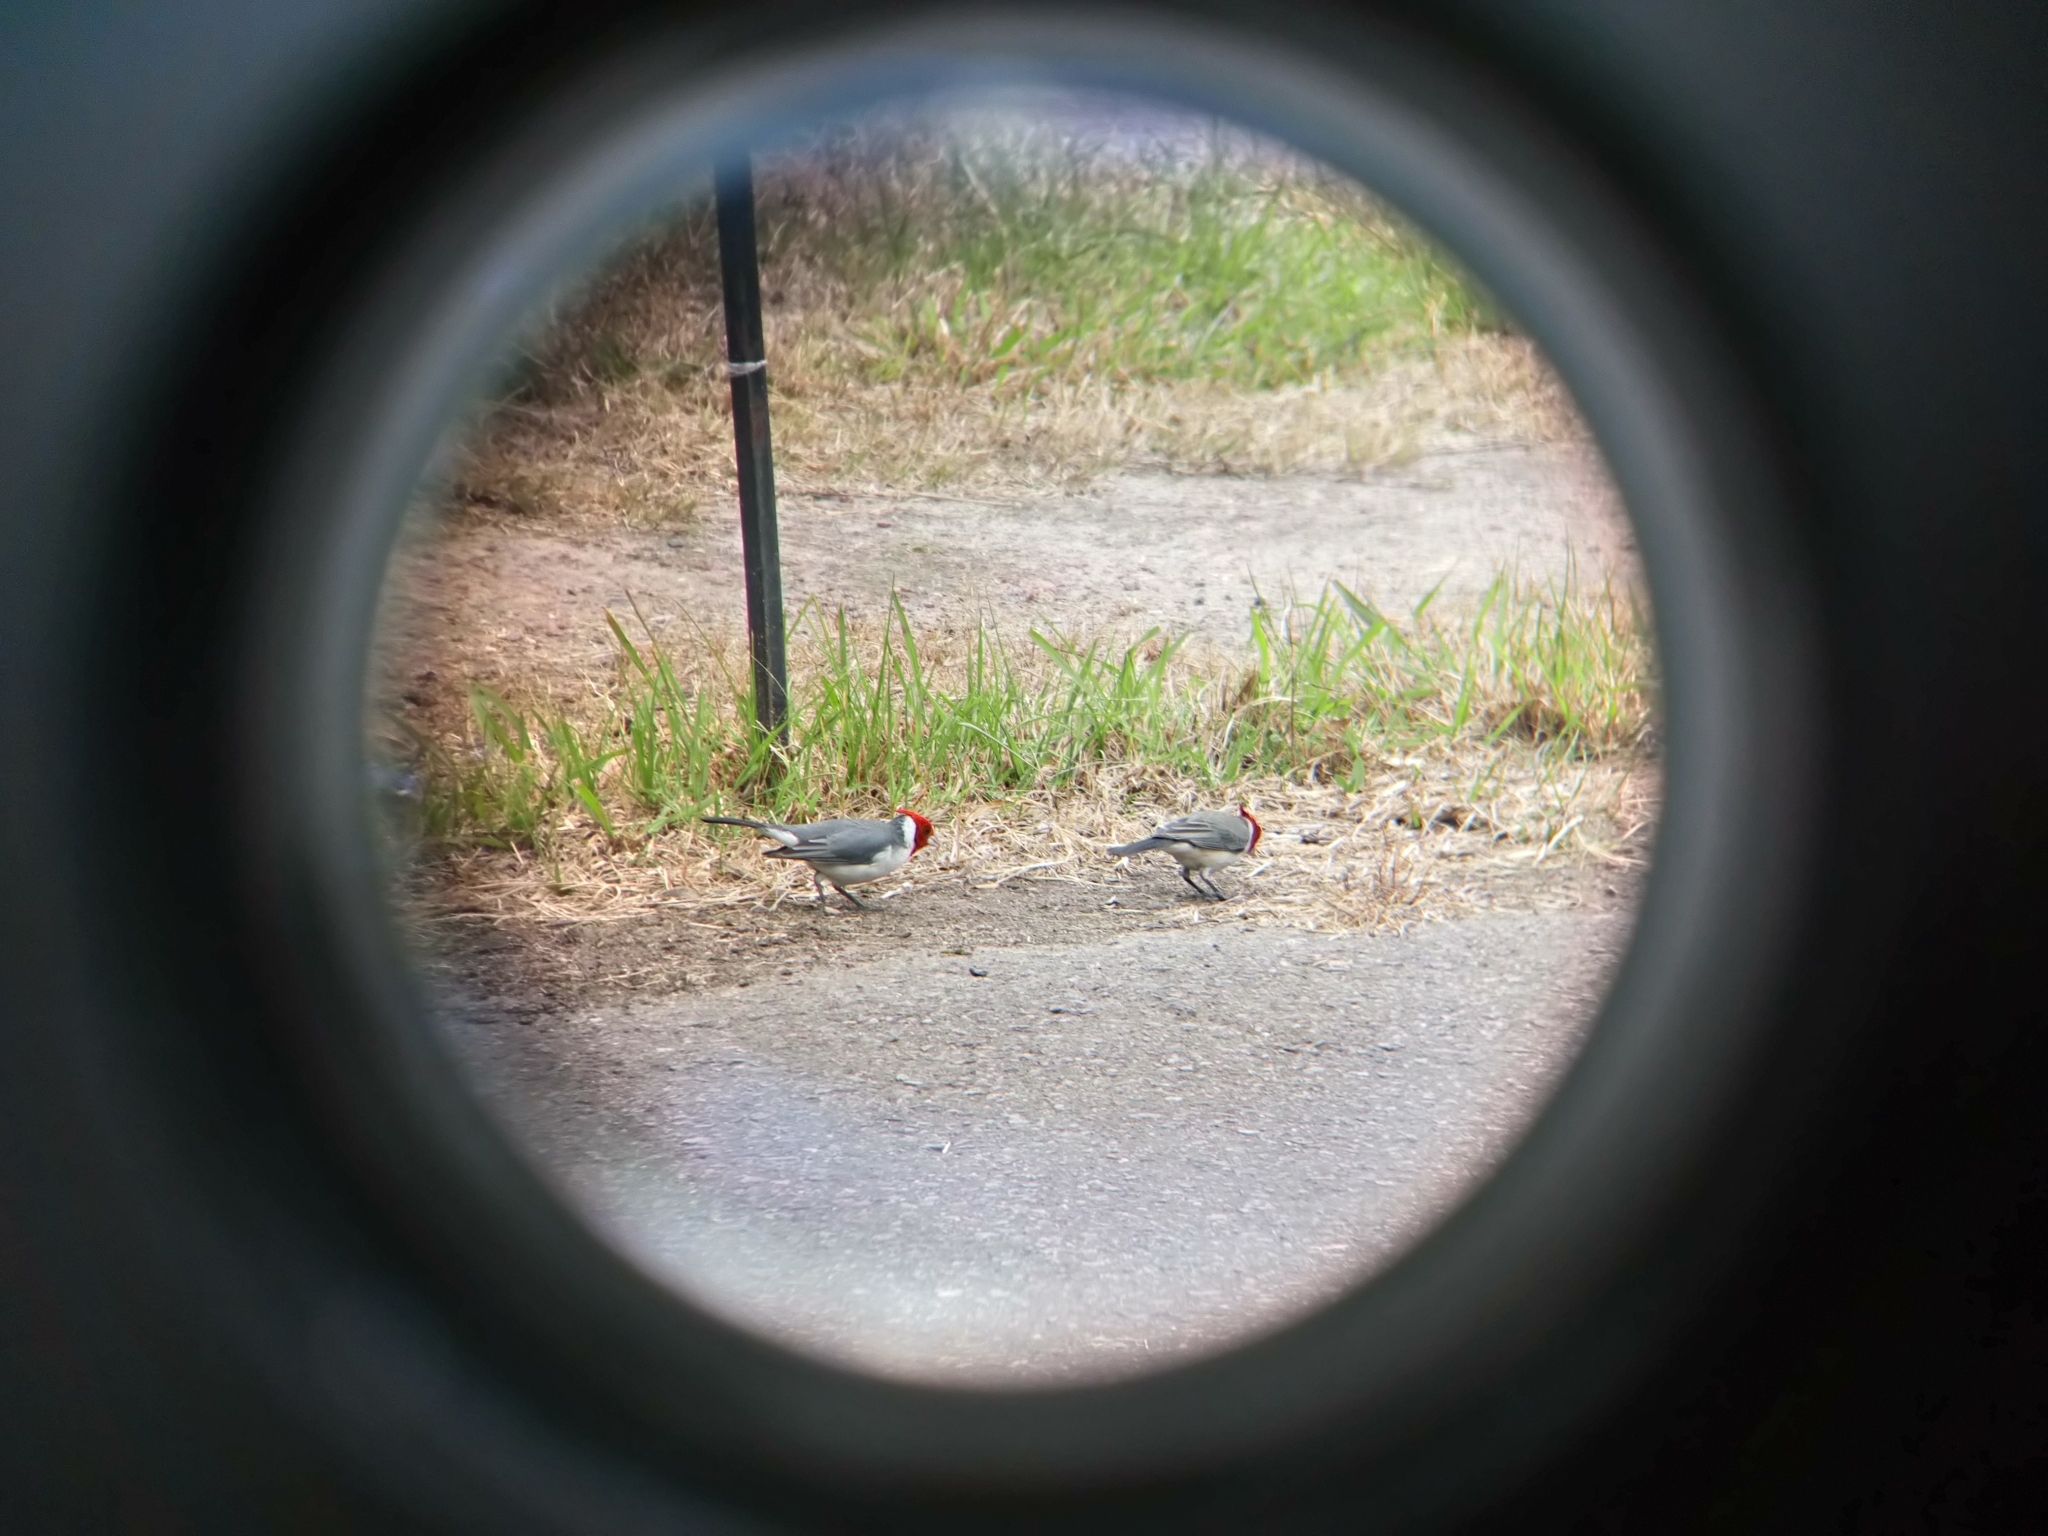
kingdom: Animalia
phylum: Chordata
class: Aves
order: Passeriformes
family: Thraupidae
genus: Paroaria
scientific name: Paroaria coronata
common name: Red-crested cardinal
